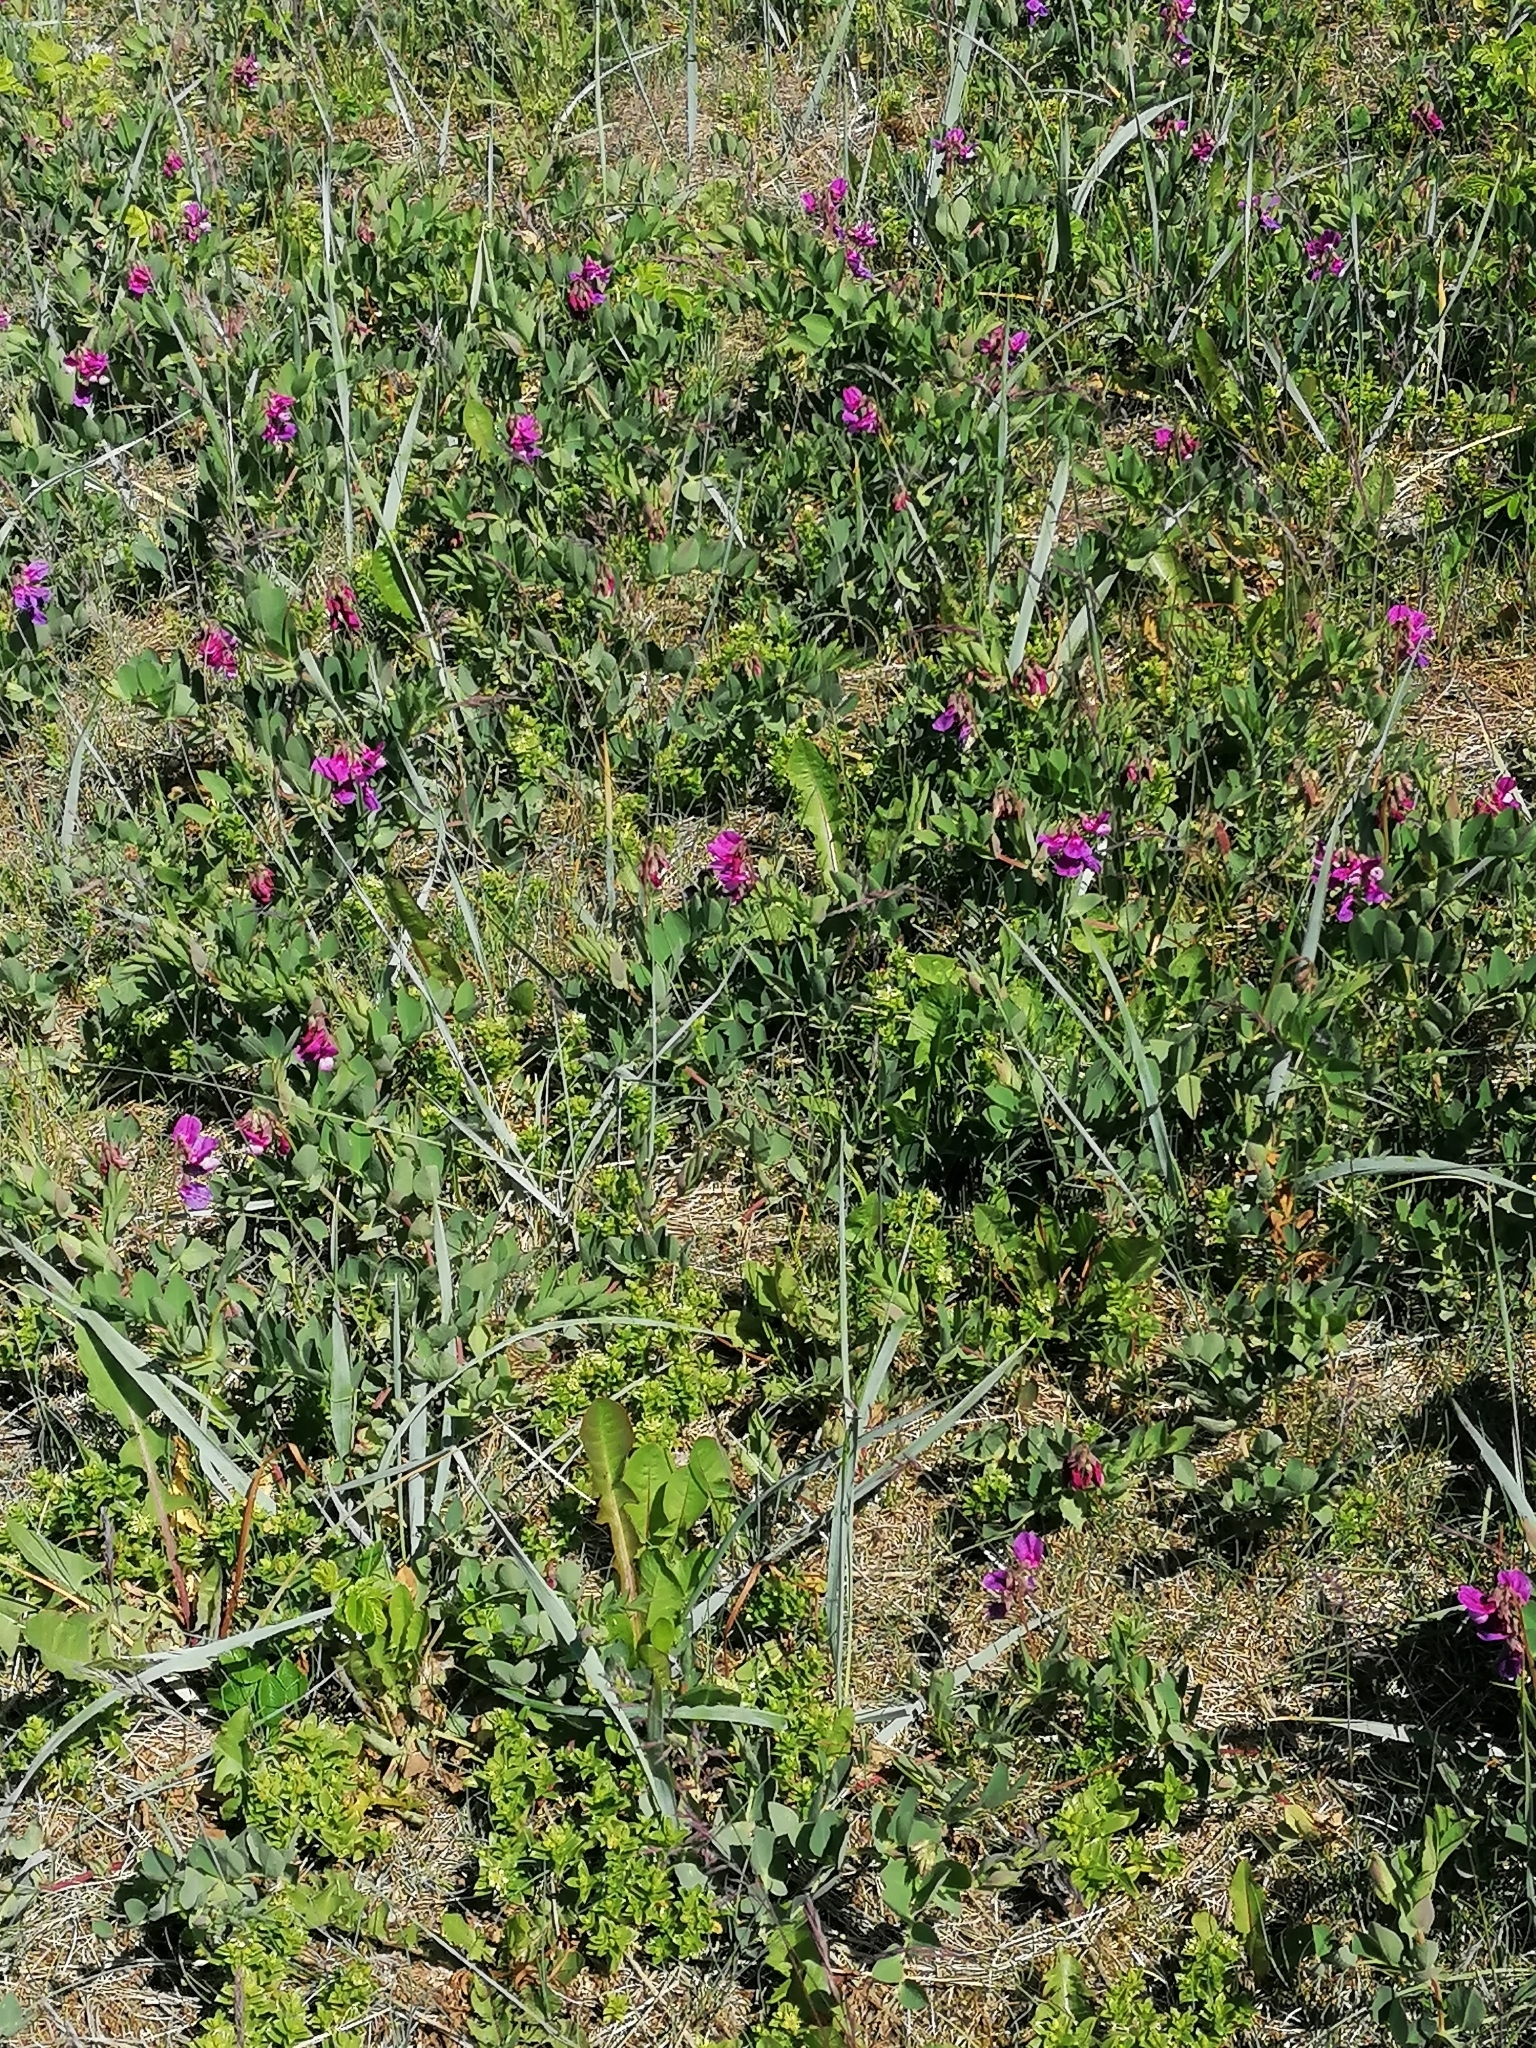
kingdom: Plantae
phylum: Tracheophyta
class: Magnoliopsida
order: Fabales
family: Fabaceae
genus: Lathyrus
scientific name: Lathyrus japonicus
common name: Sea pea
